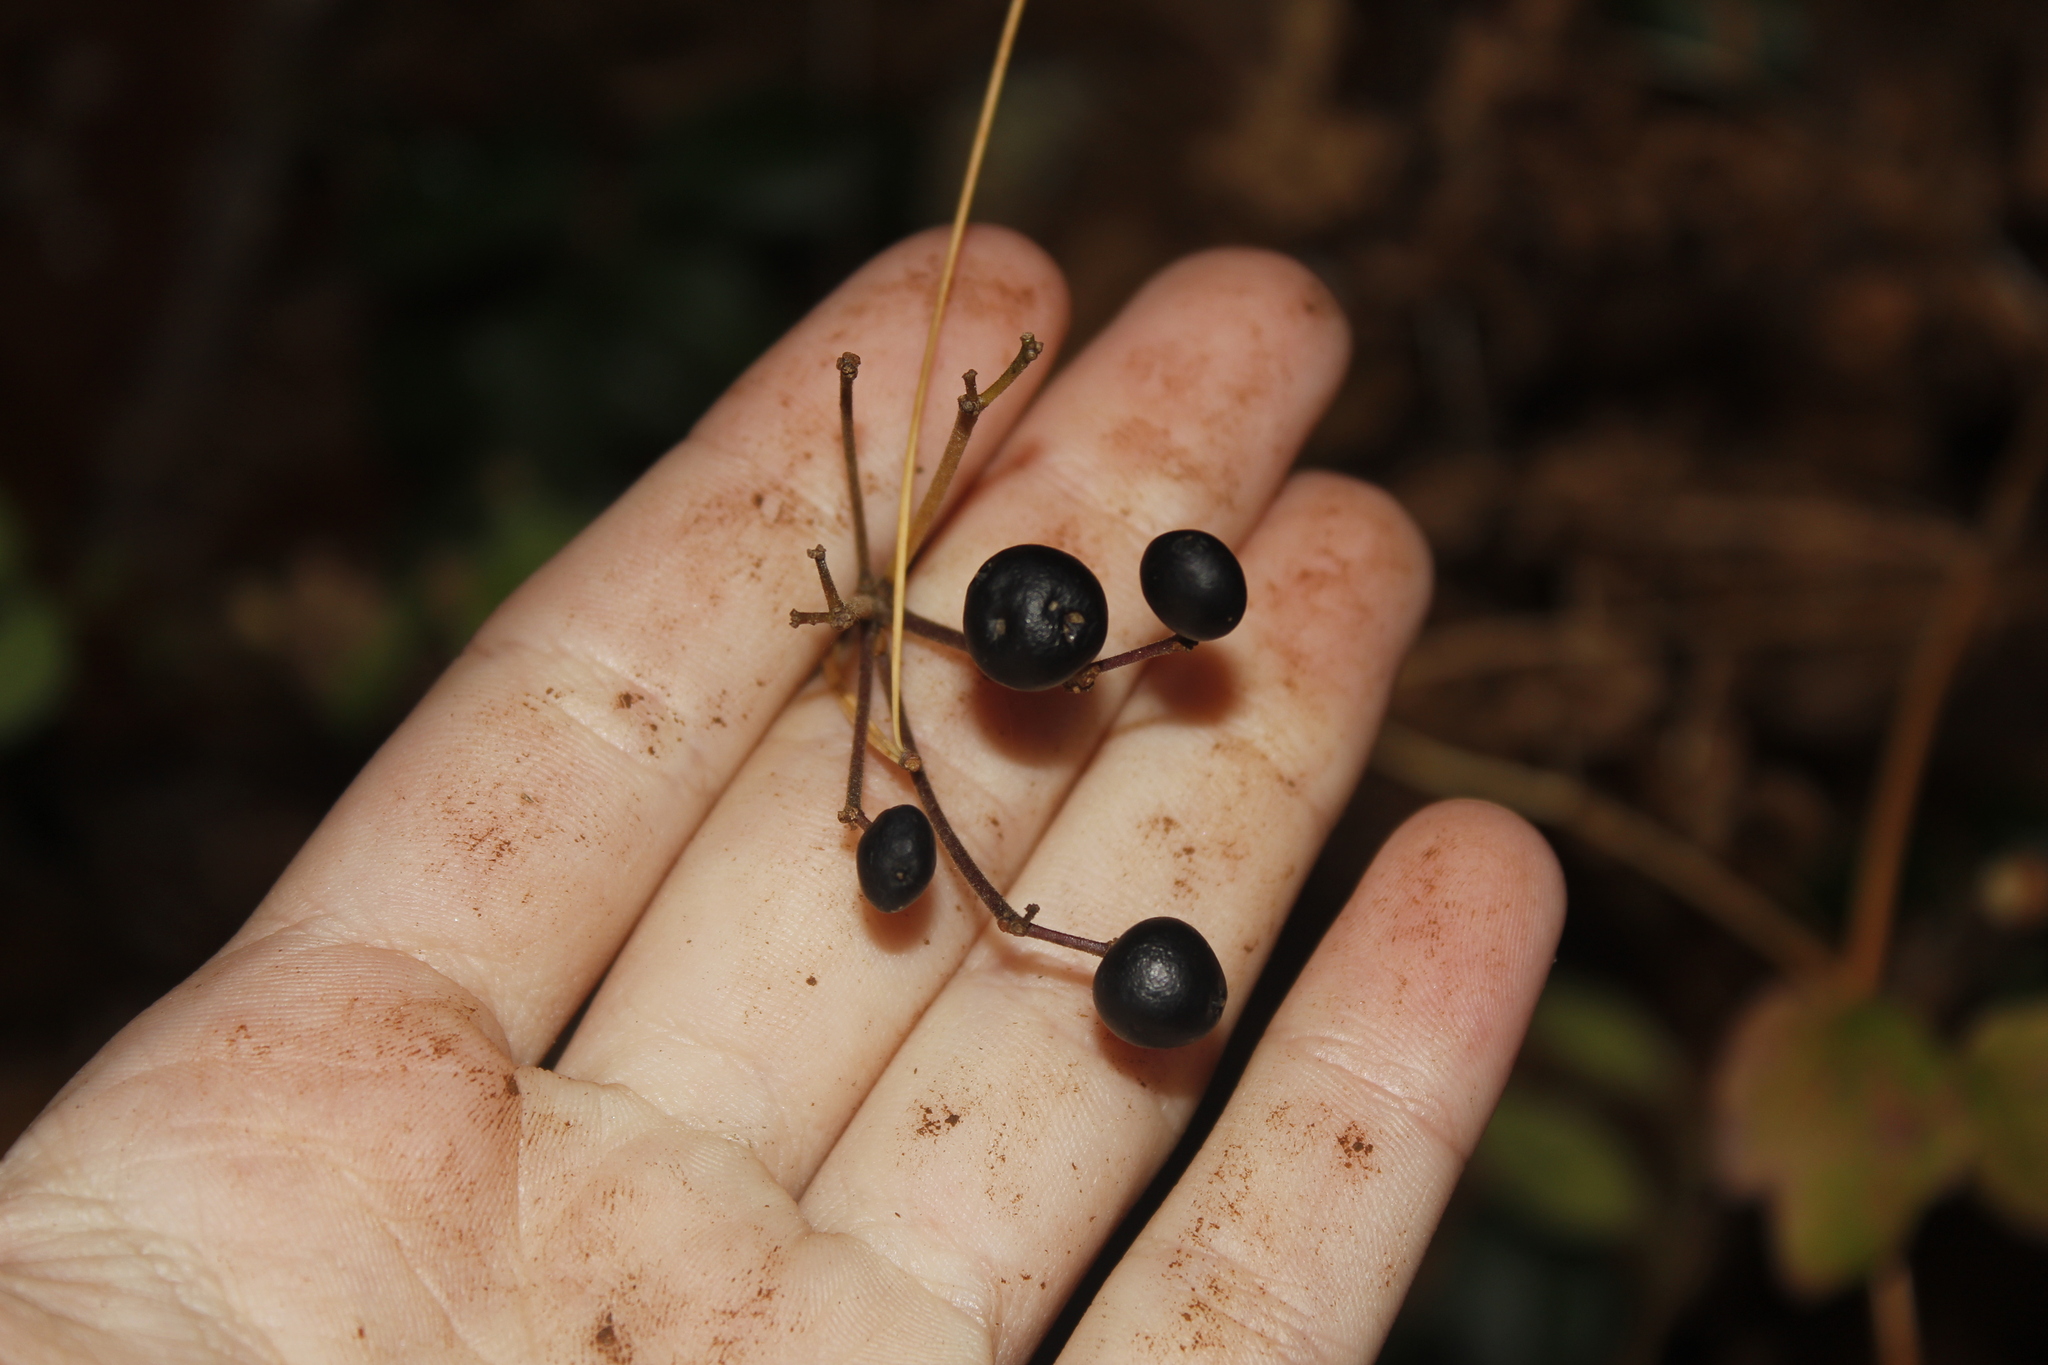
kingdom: Plantae
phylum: Tracheophyta
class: Magnoliopsida
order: Dipsacales
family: Viburnaceae
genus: Viburnum
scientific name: Viburnum acerifolium
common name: Dockmackie
